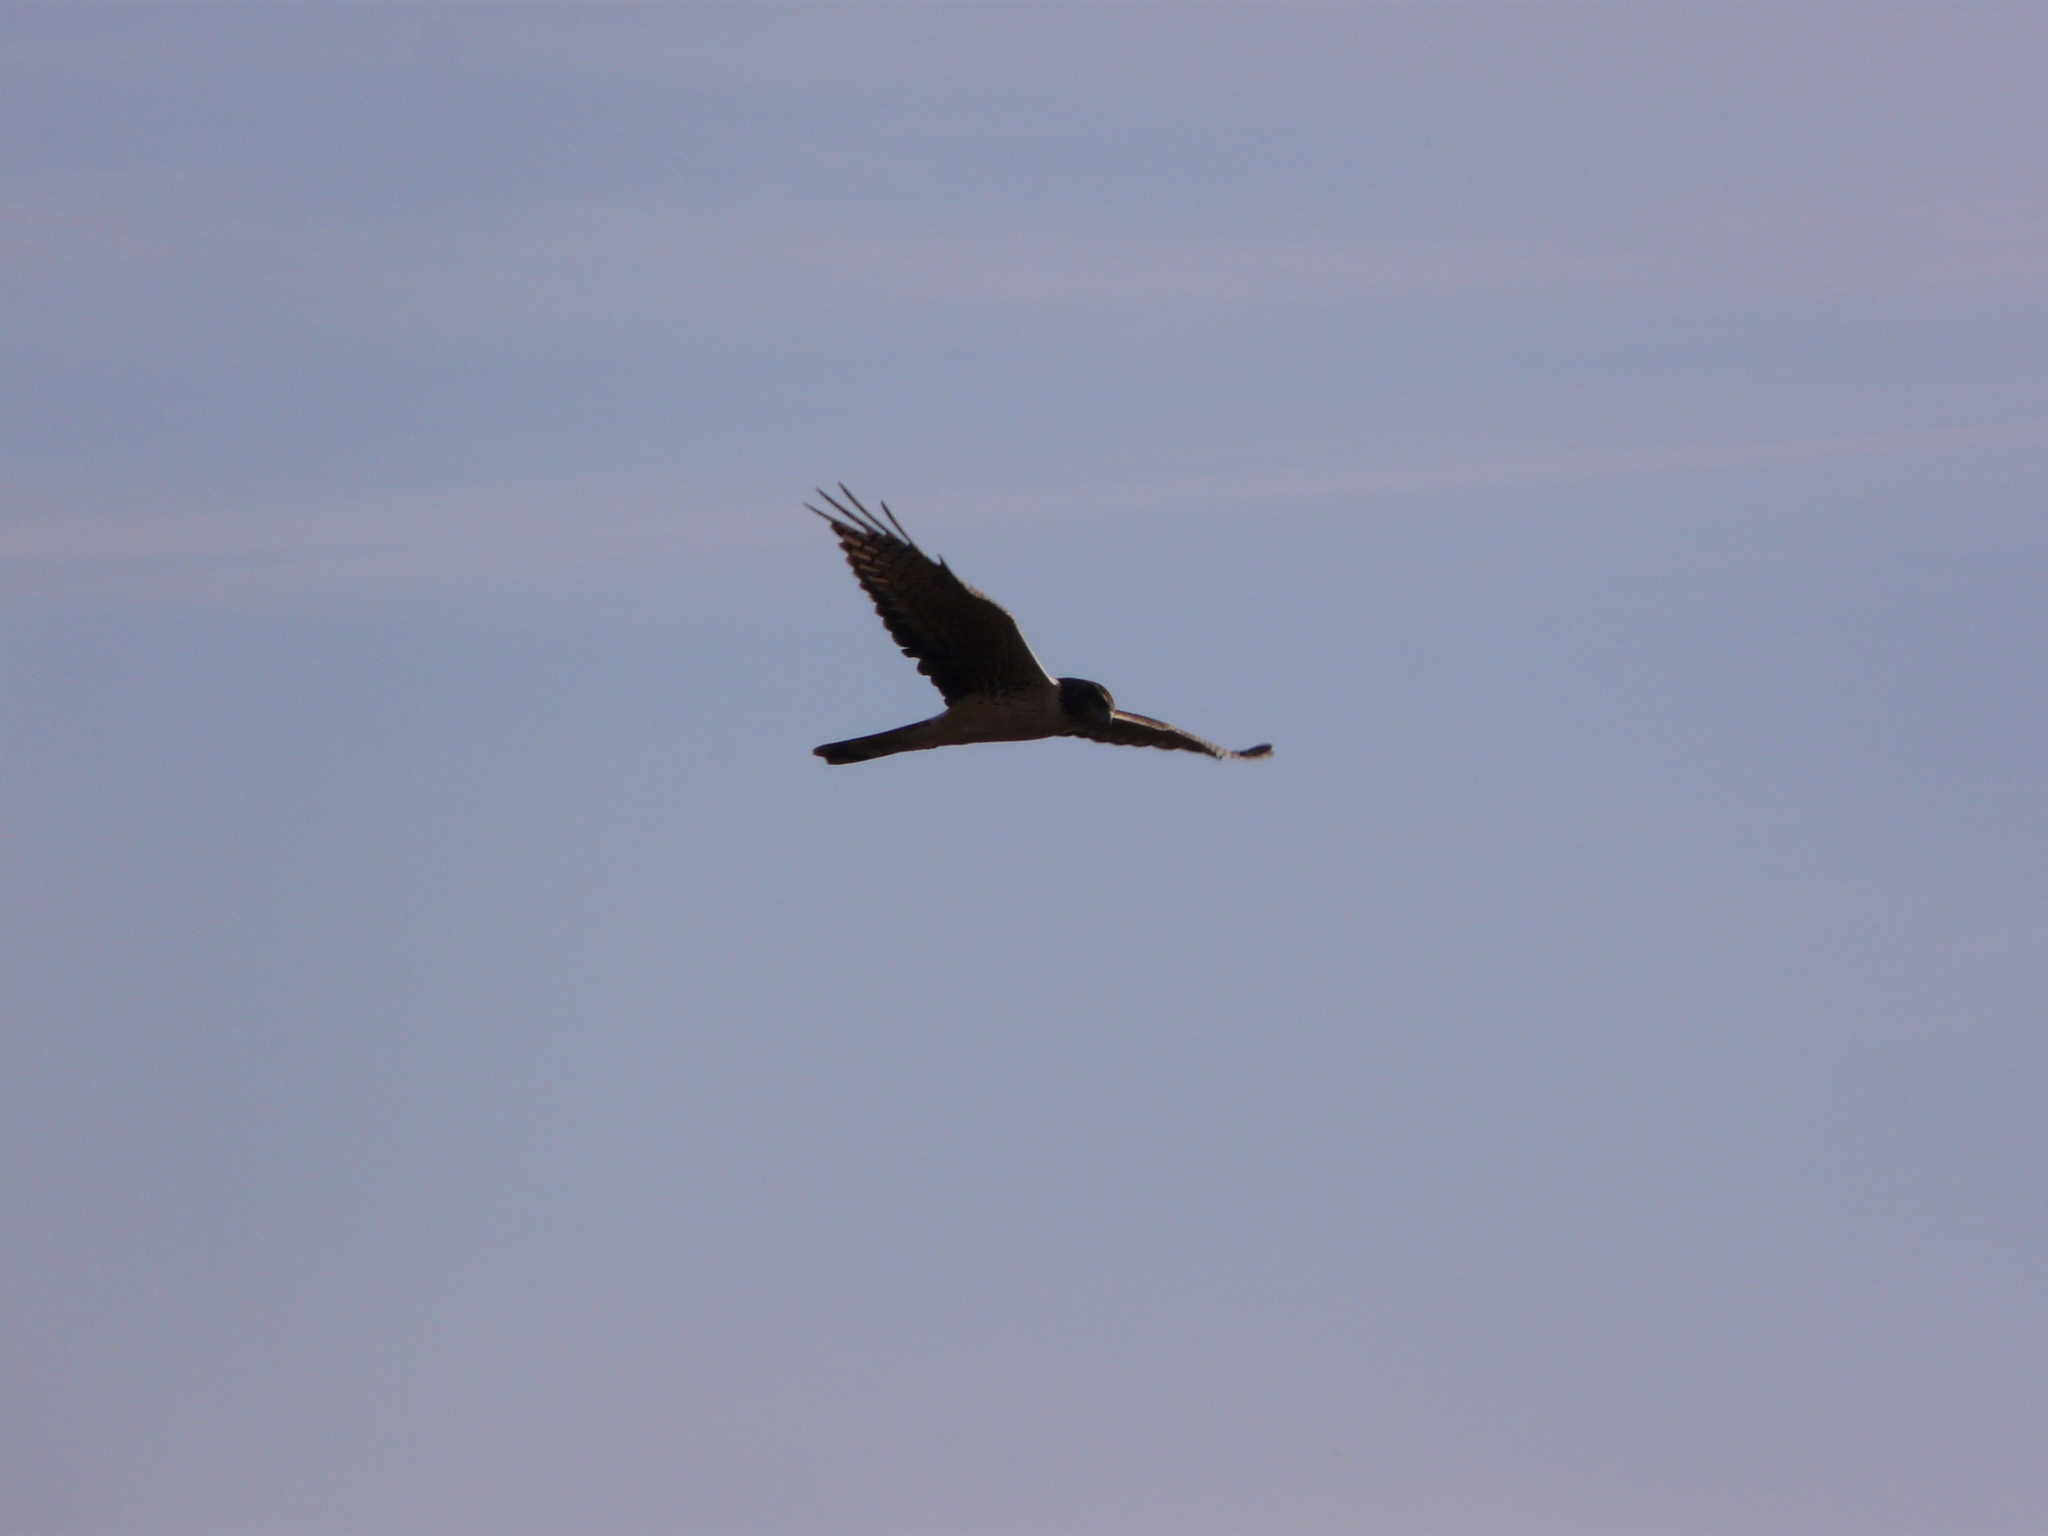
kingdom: Animalia
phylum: Chordata
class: Aves
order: Accipitriformes
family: Accipitridae
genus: Circus
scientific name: Circus buffoni
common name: Long-winged harrier
